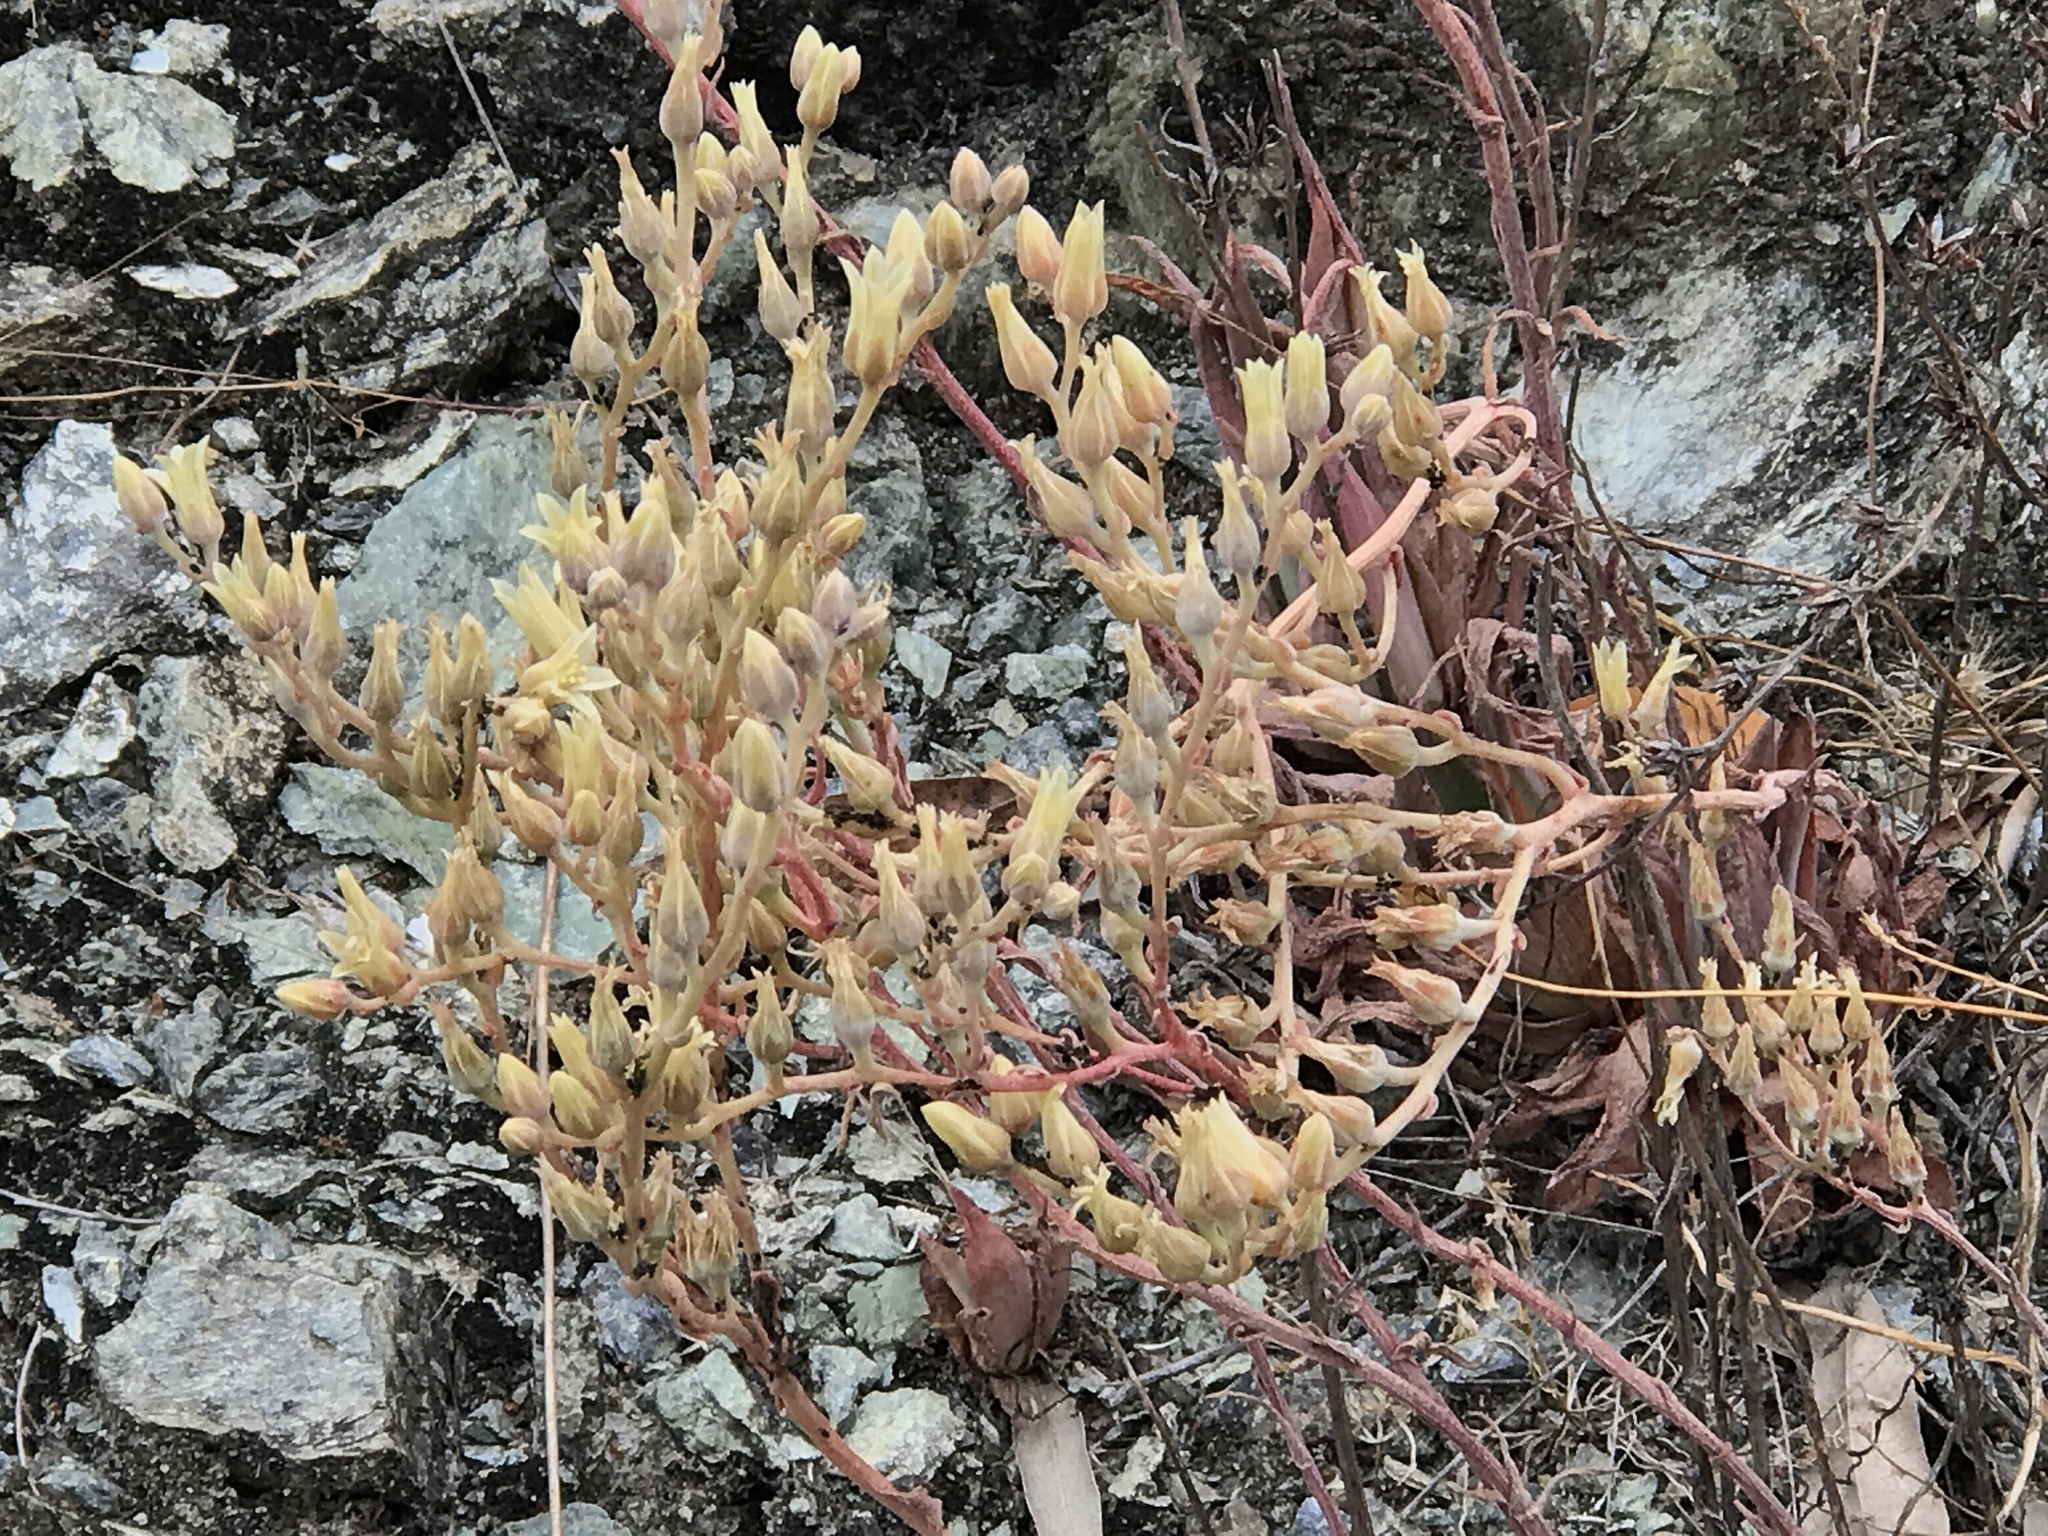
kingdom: Plantae
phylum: Tracheophyta
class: Magnoliopsida
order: Saxifragales
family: Crassulaceae
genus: Dudleya
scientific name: Dudleya abramsii
